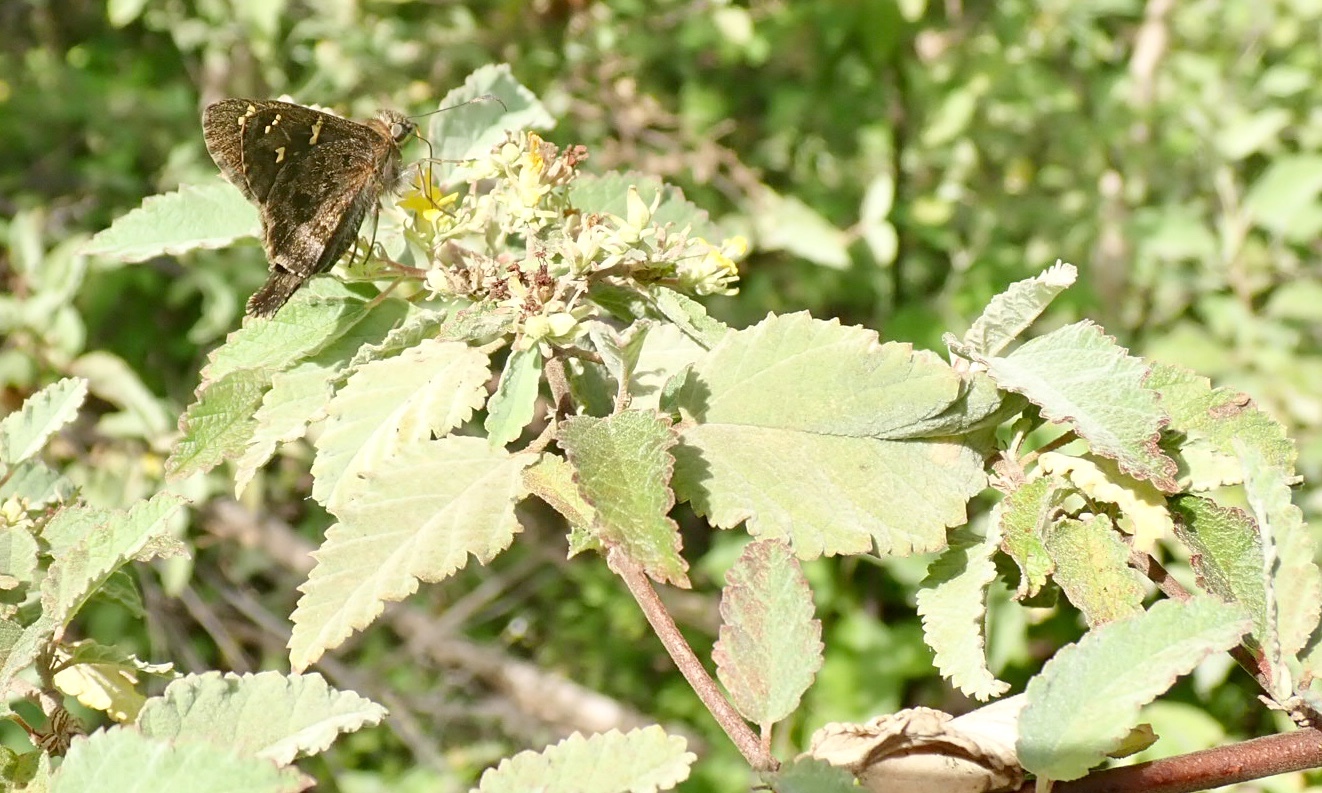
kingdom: Animalia
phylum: Arthropoda
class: Insecta
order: Lepidoptera
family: Hesperiidae
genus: Thorybes
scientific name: Thorybes
